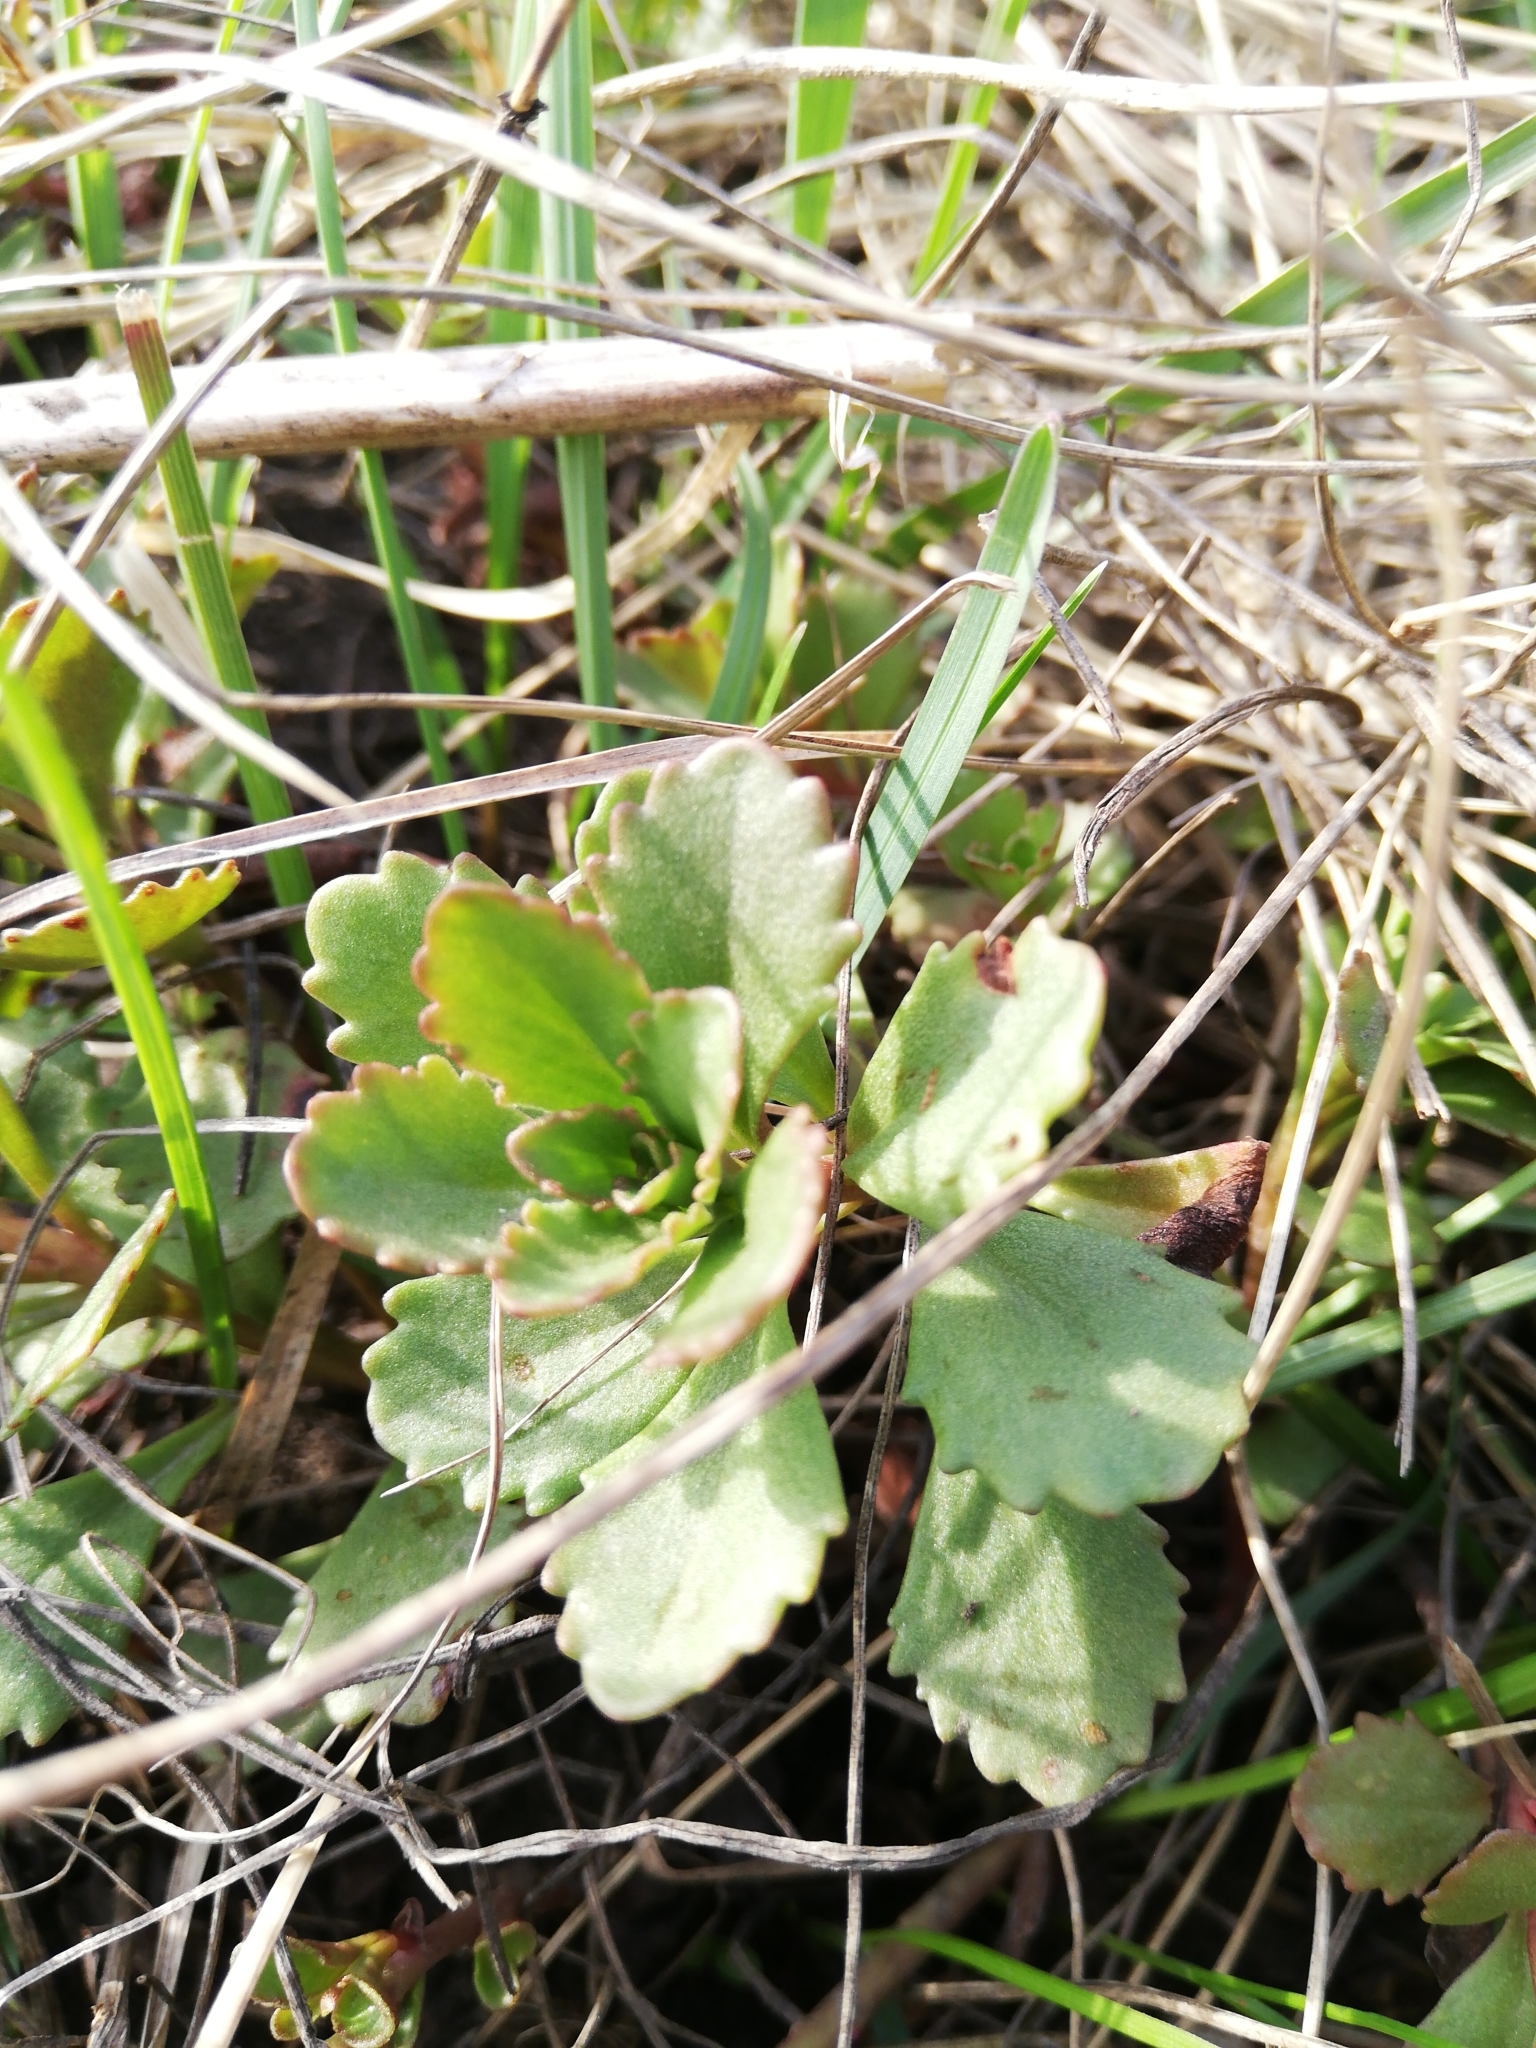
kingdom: Plantae
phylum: Tracheophyta
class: Magnoliopsida
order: Saxifragales
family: Crassulaceae
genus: Phedimus
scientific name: Phedimus hybridus
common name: Hybrid stonecrop
